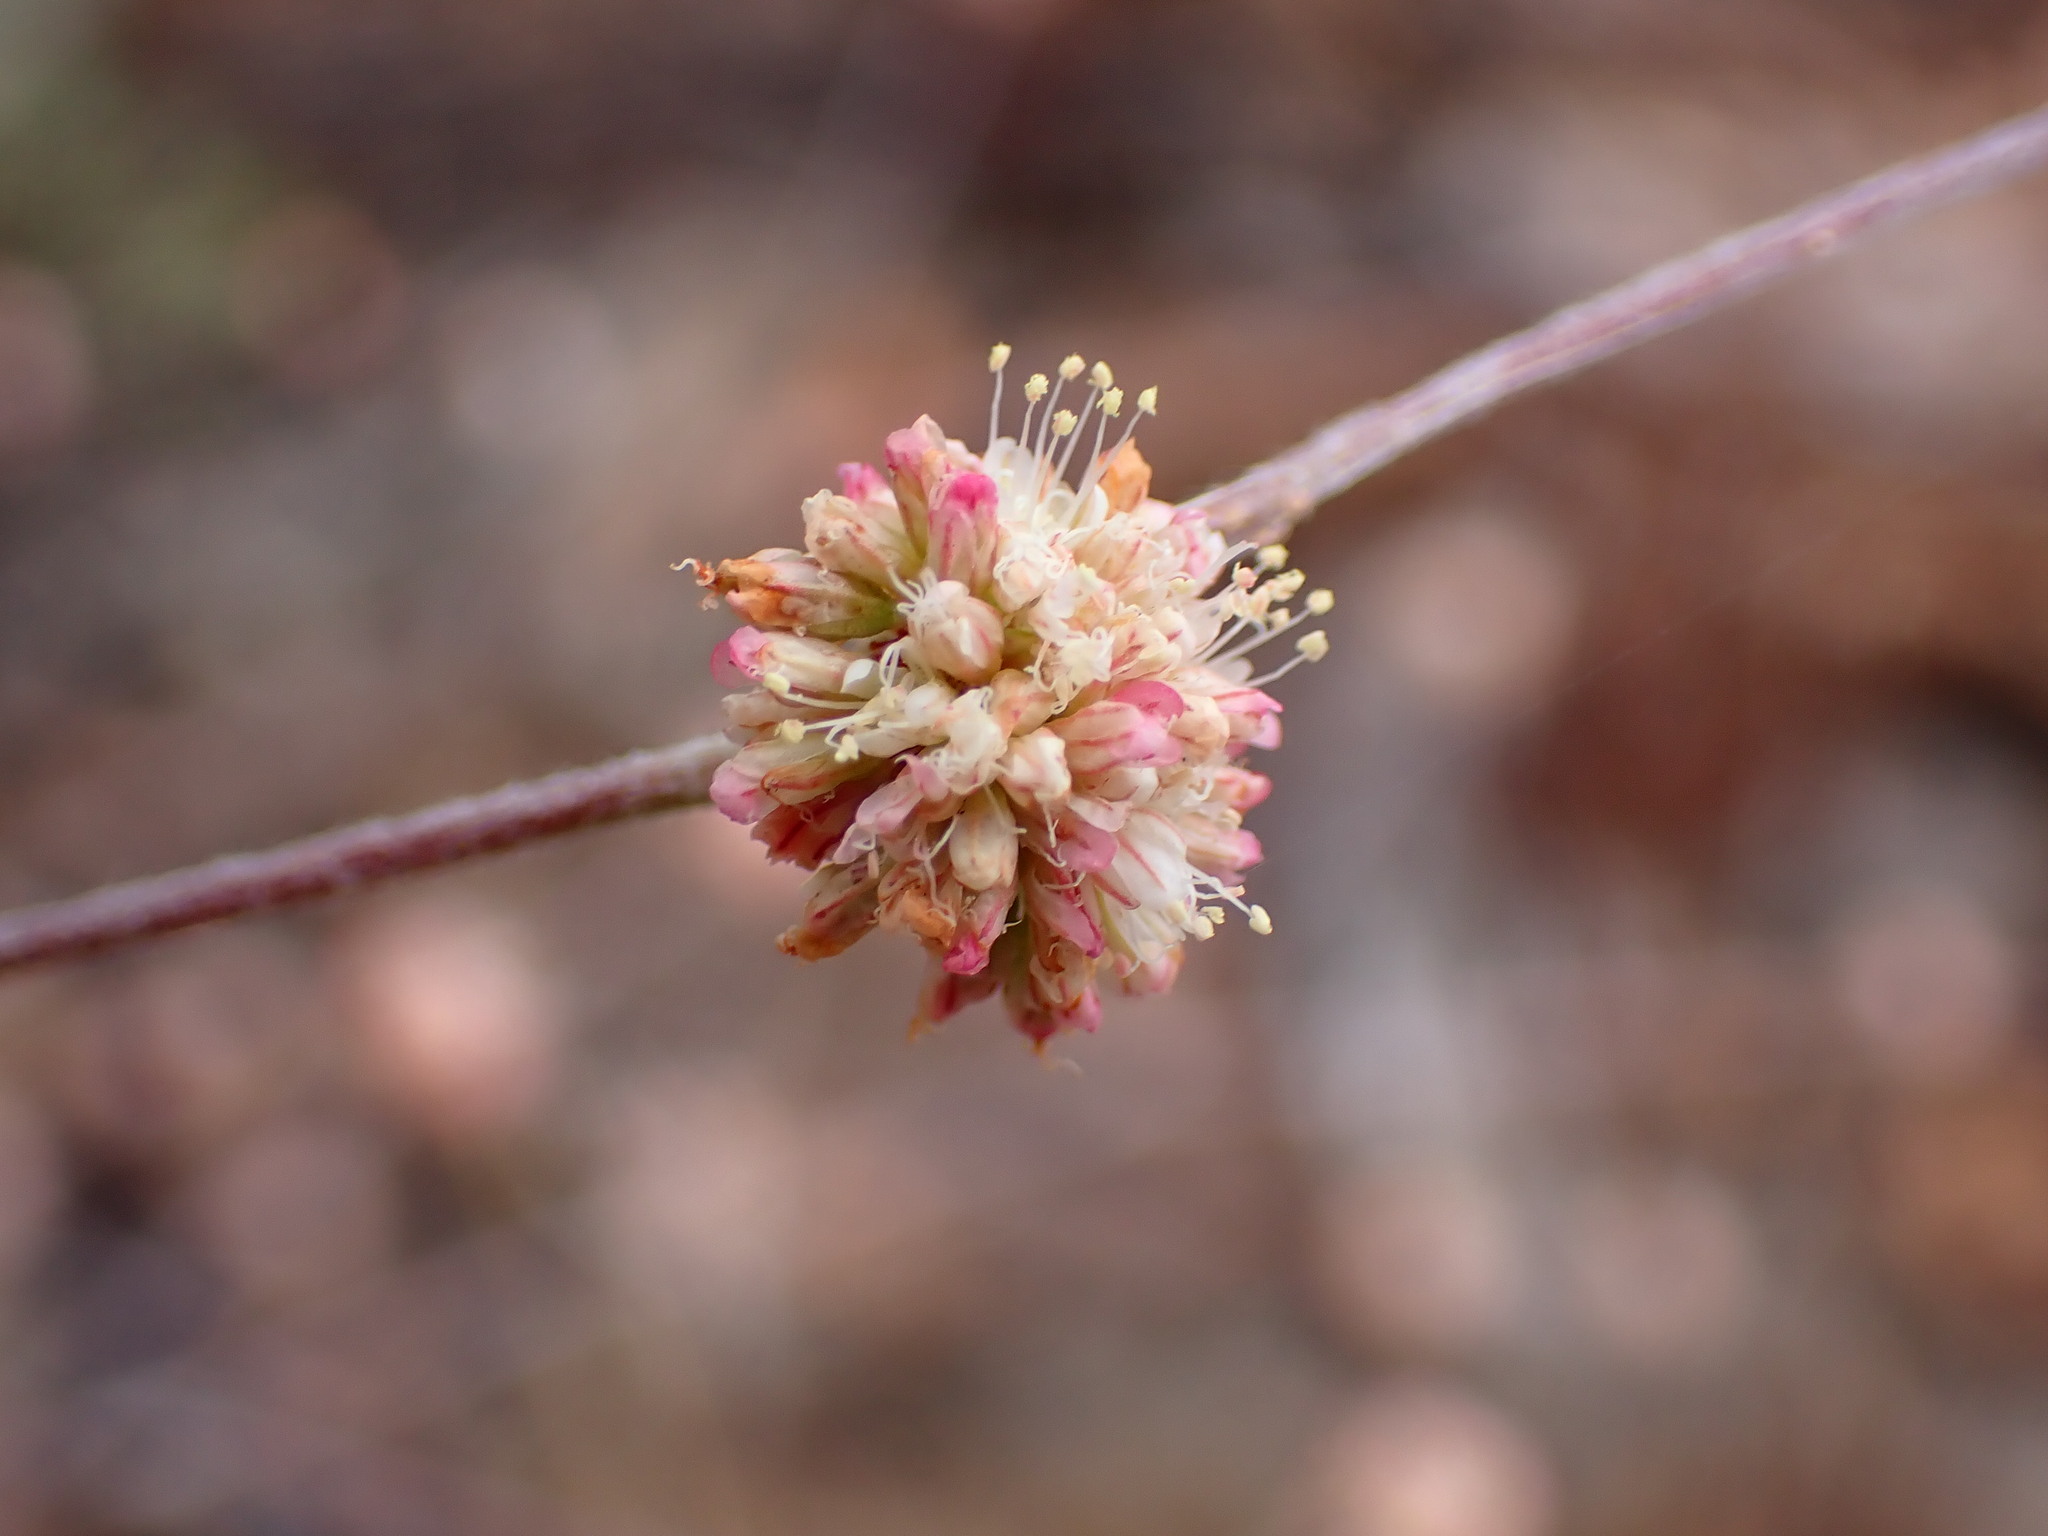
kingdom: Plantae
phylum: Tracheophyta
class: Magnoliopsida
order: Caryophyllales
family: Polygonaceae
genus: Eriogonum
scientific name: Eriogonum nudum
